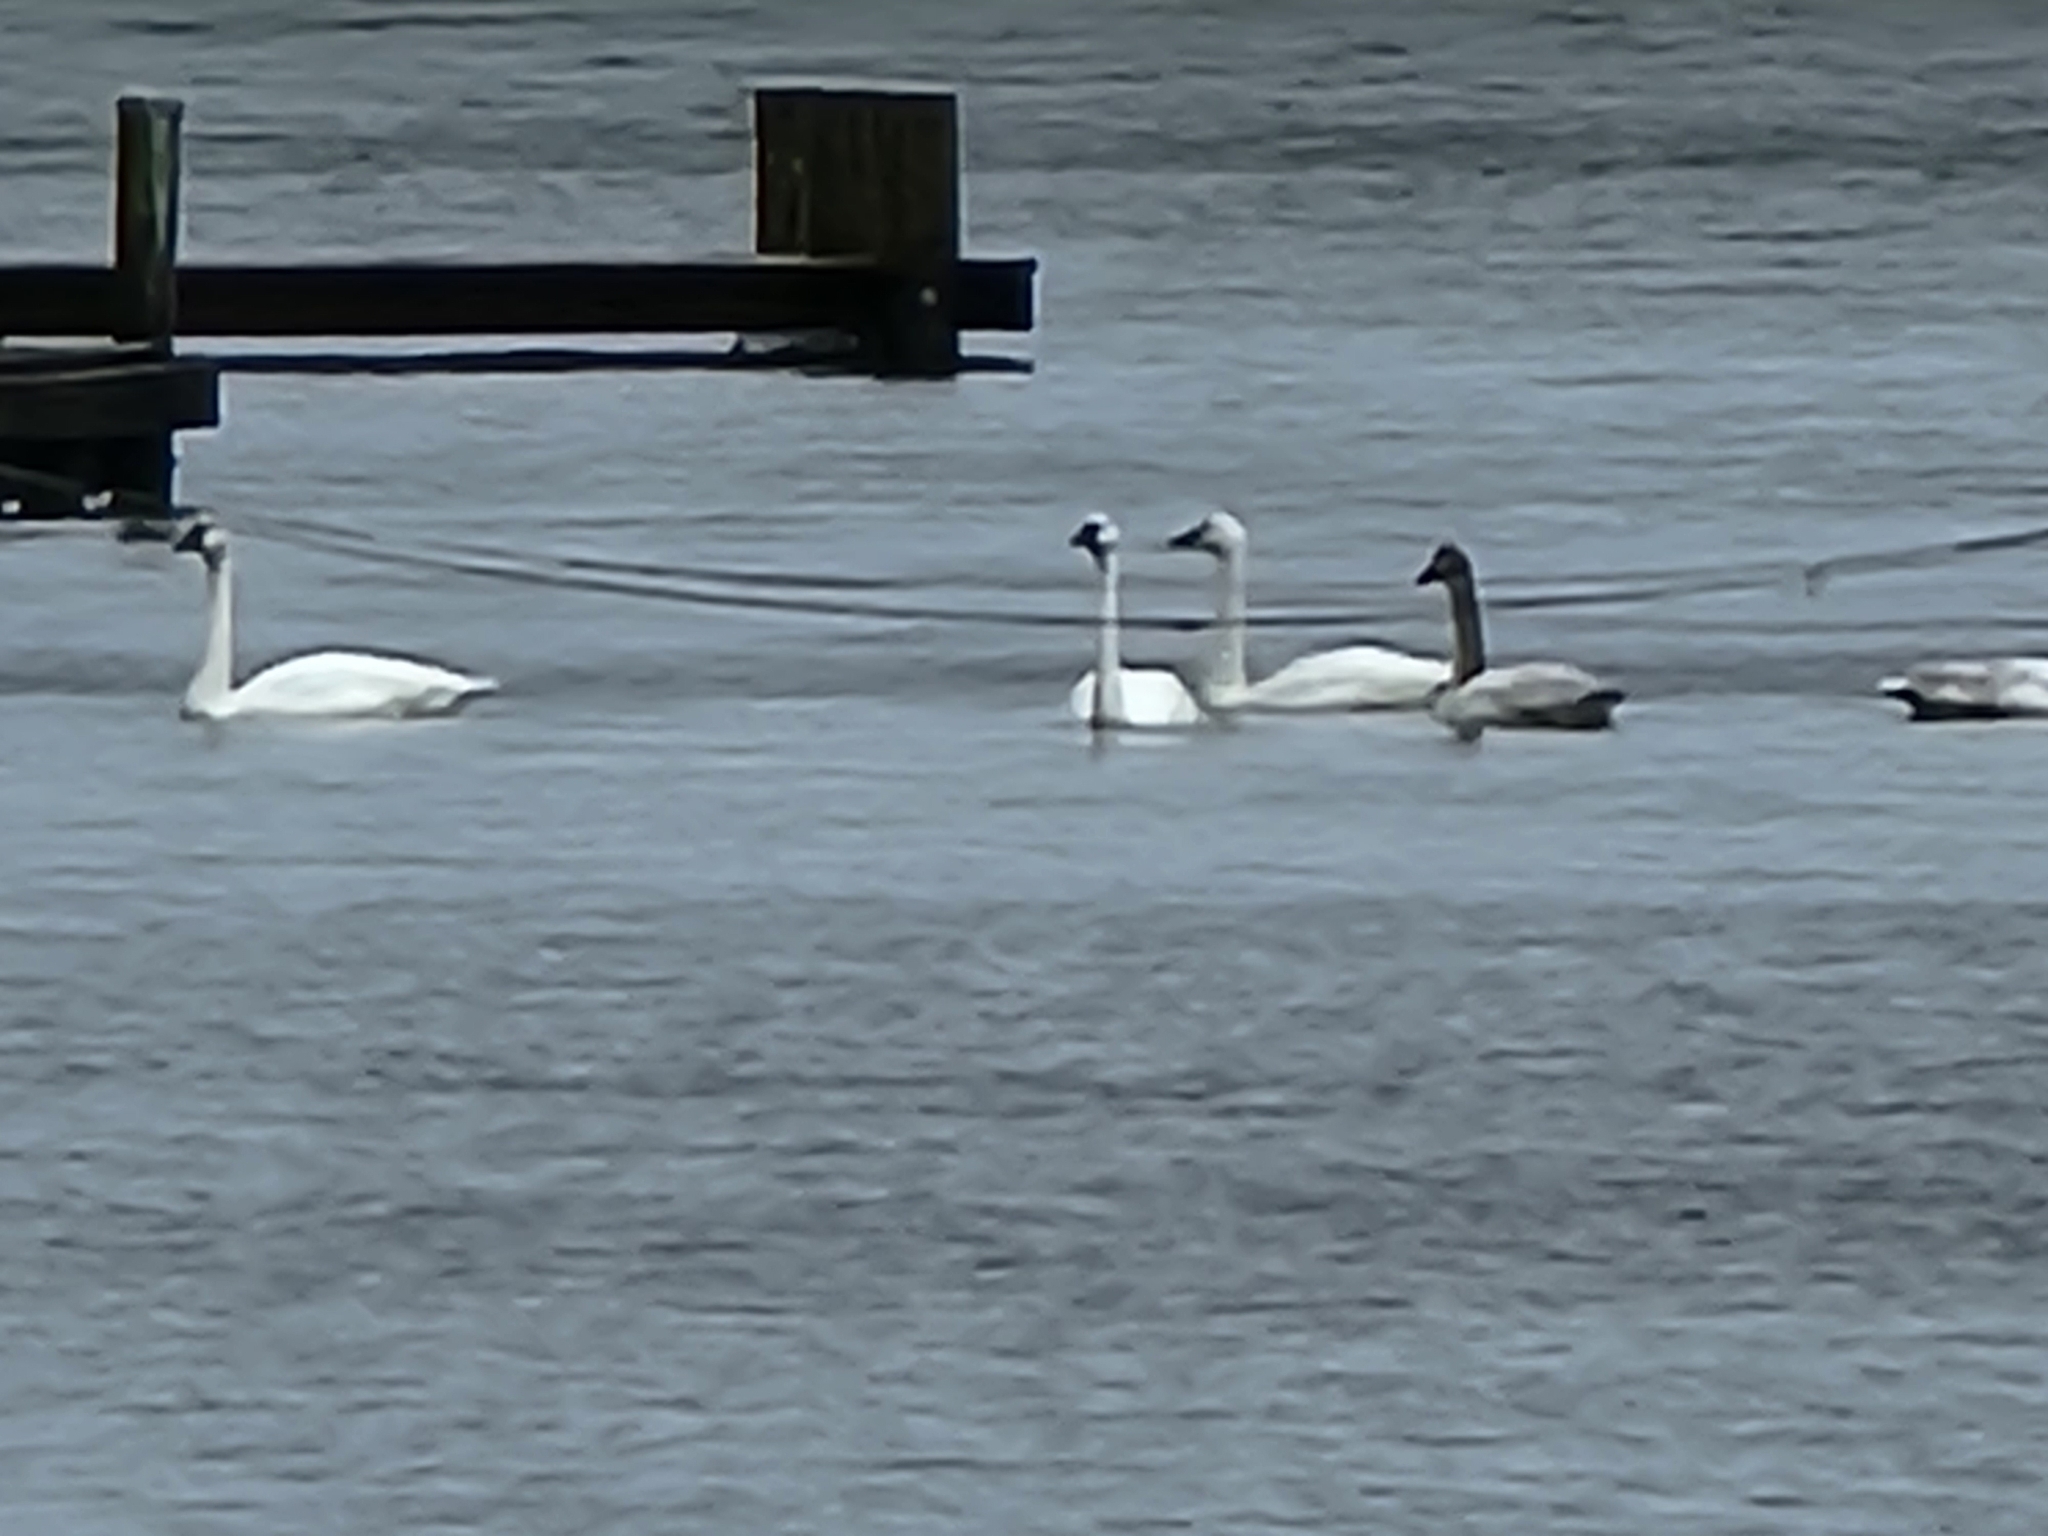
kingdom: Animalia
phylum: Chordata
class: Aves
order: Anseriformes
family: Anatidae
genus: Cygnus
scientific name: Cygnus columbianus
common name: Tundra swan
